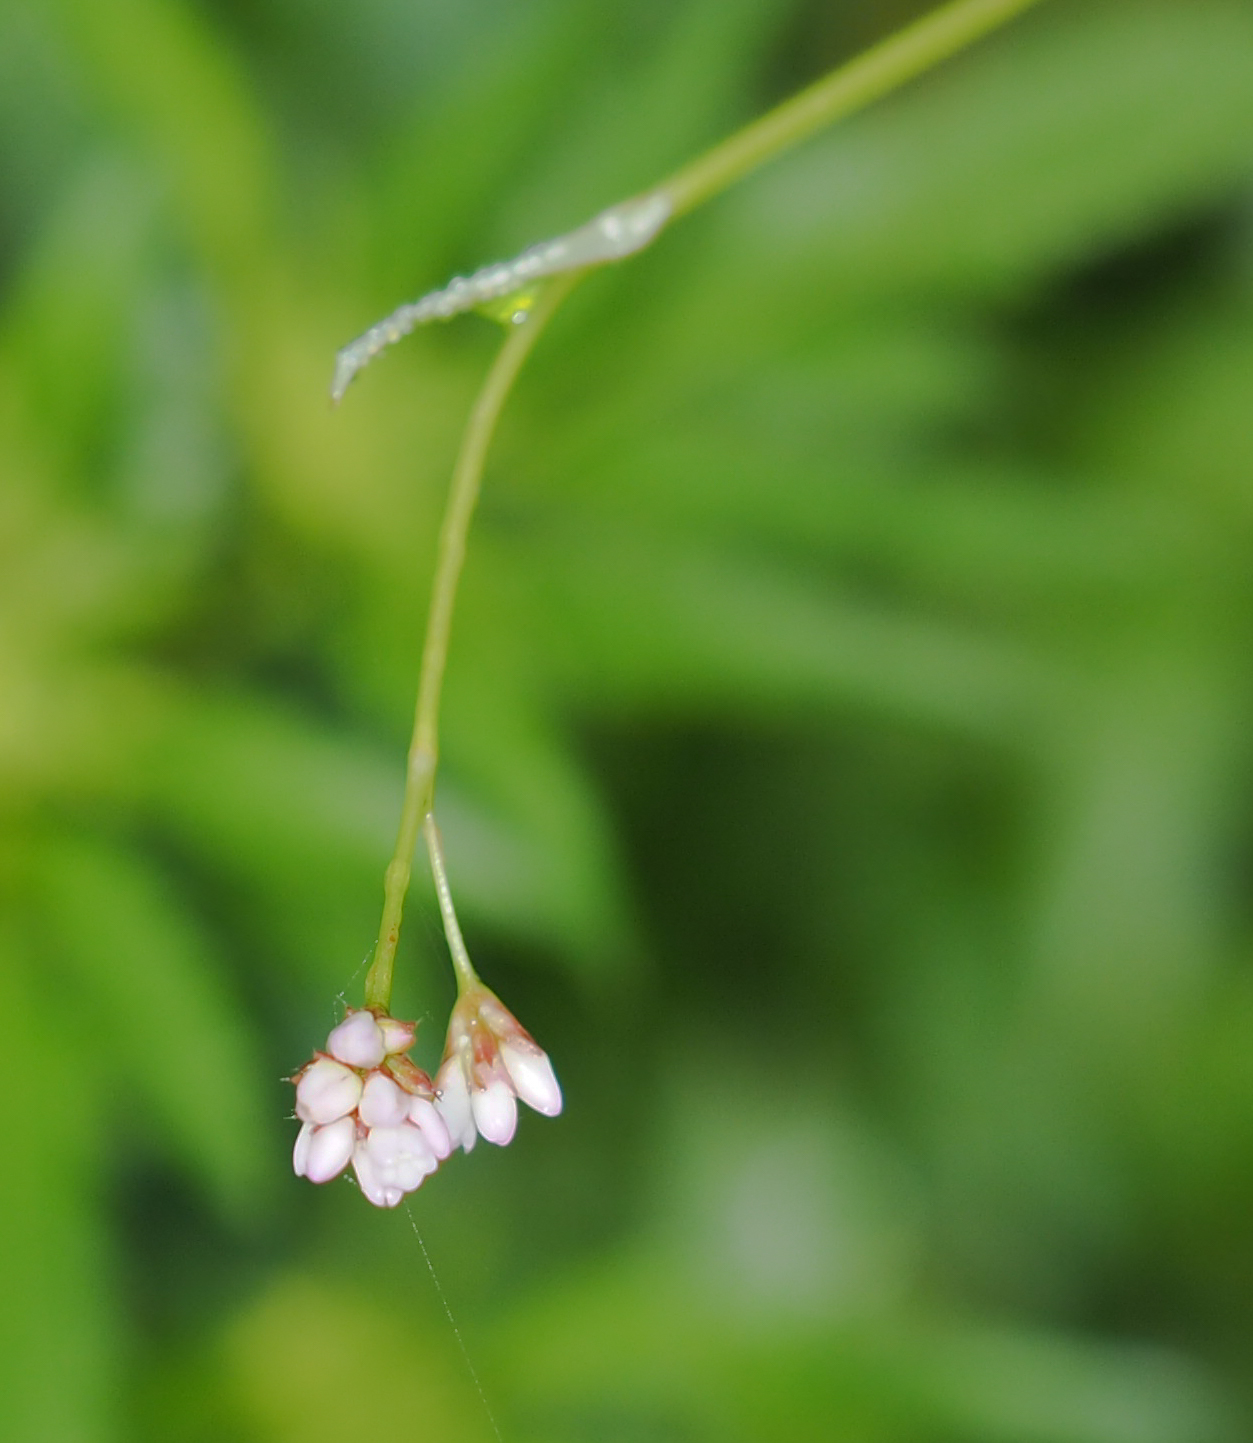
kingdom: Plantae
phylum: Tracheophyta
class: Magnoliopsida
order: Caryophyllales
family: Polygonaceae
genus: Persicaria
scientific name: Persicaria sagittata
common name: American tearthumb
